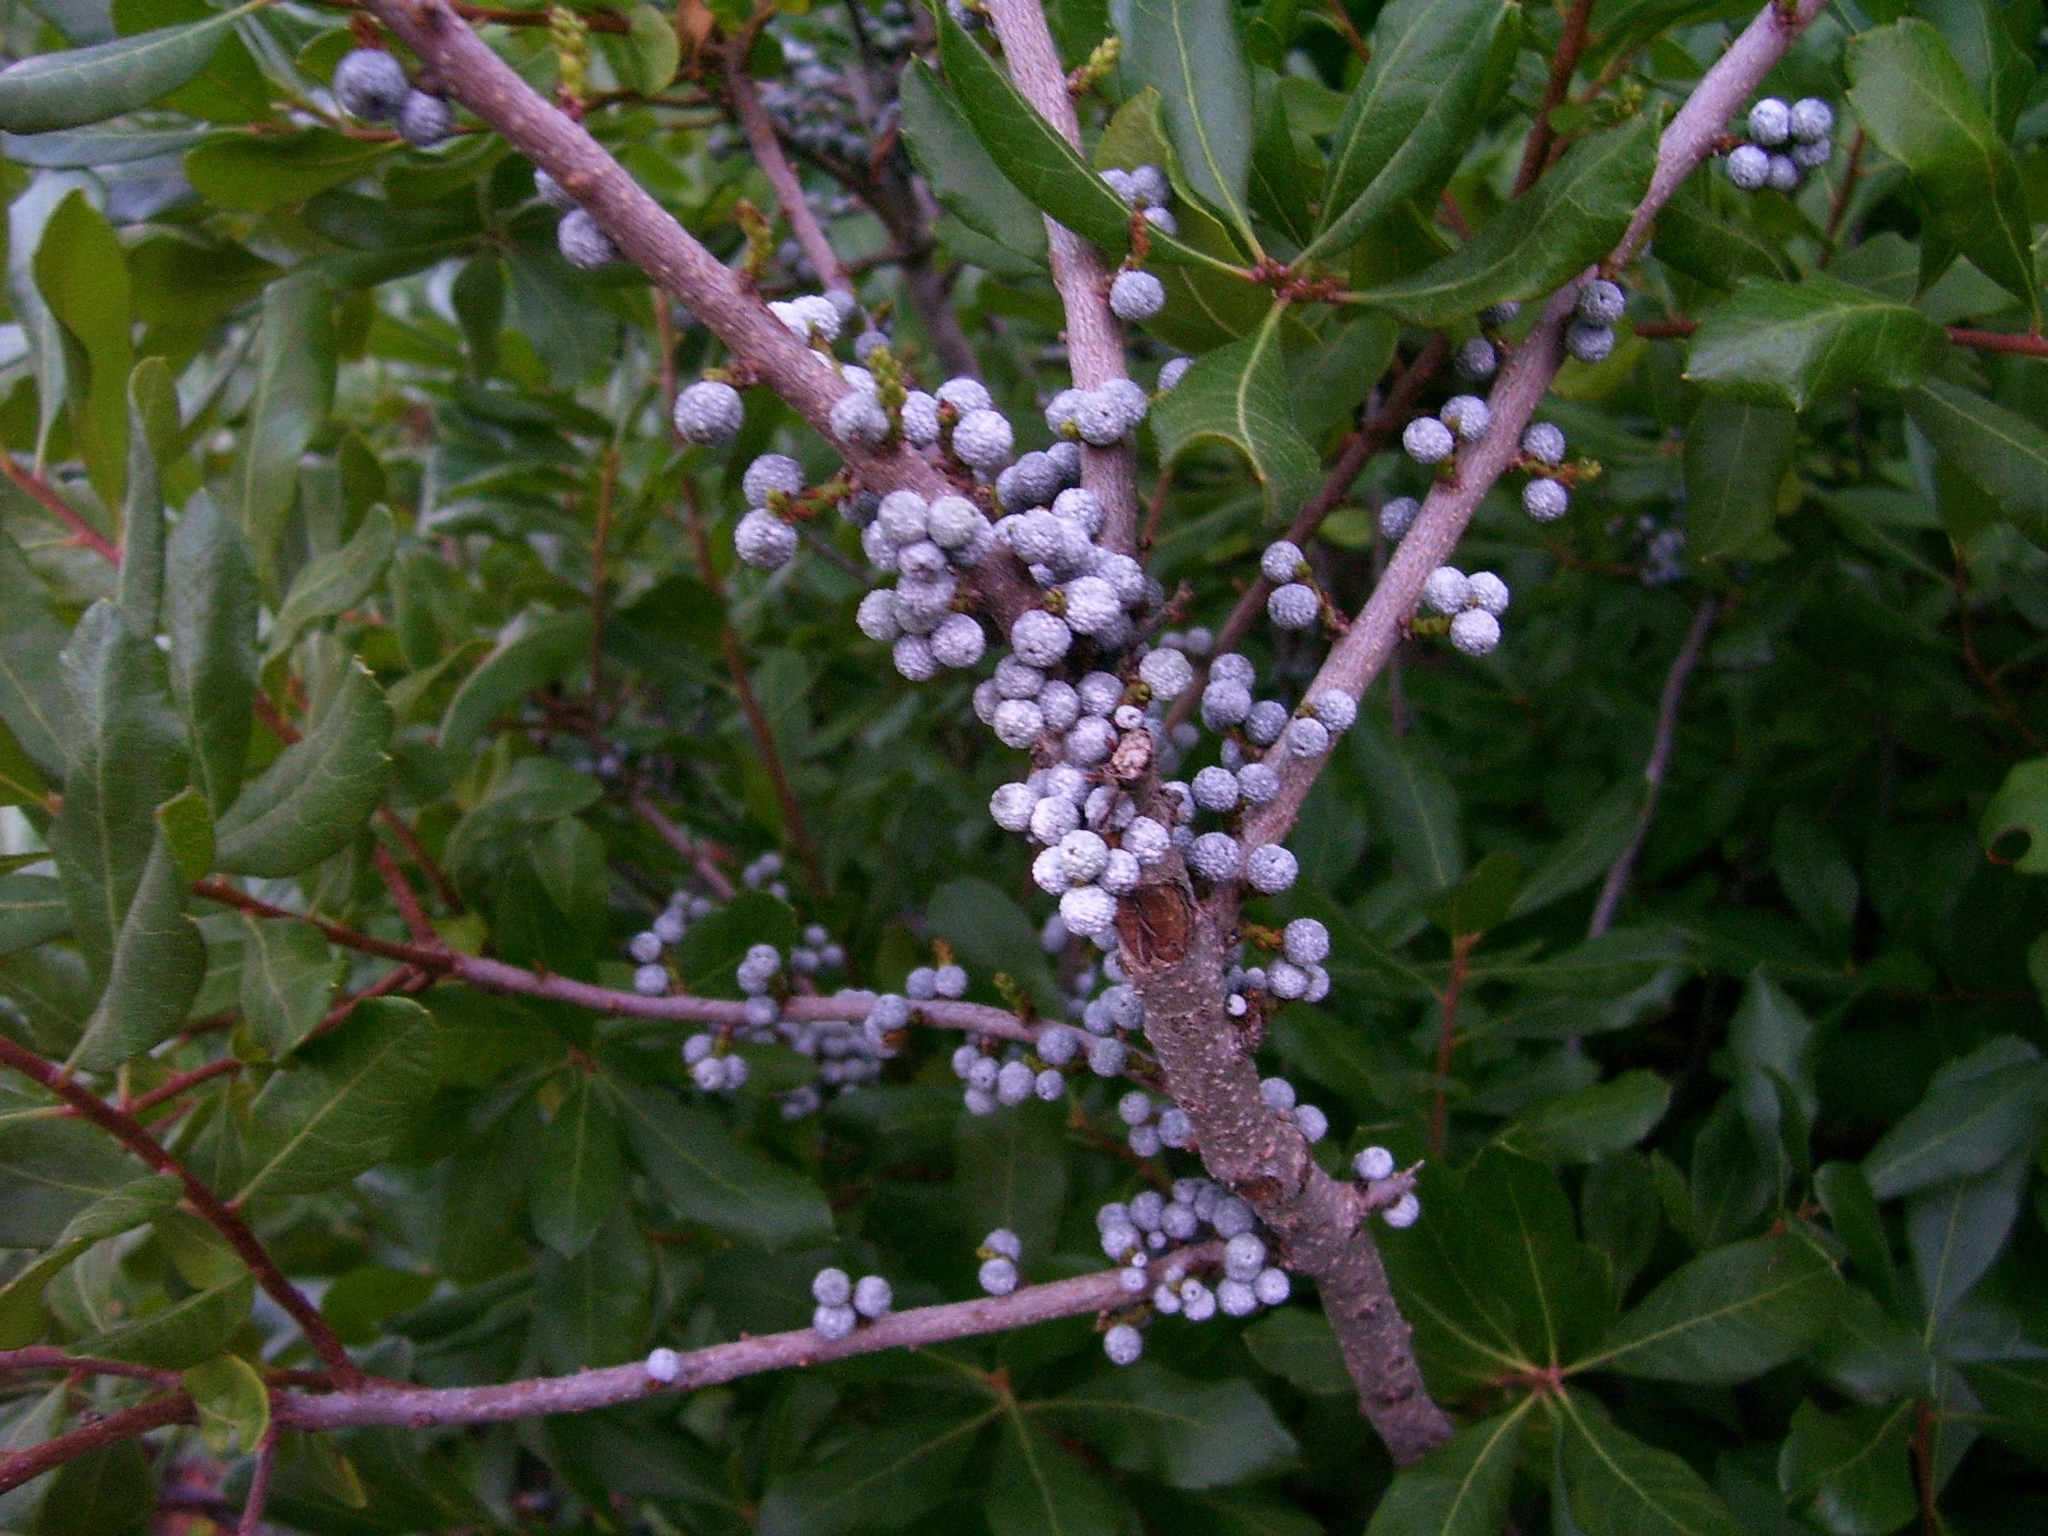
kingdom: Plantae
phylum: Tracheophyta
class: Magnoliopsida
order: Fagales
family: Myricaceae
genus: Morella
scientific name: Morella pensylvanica
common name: Northern bayberry
